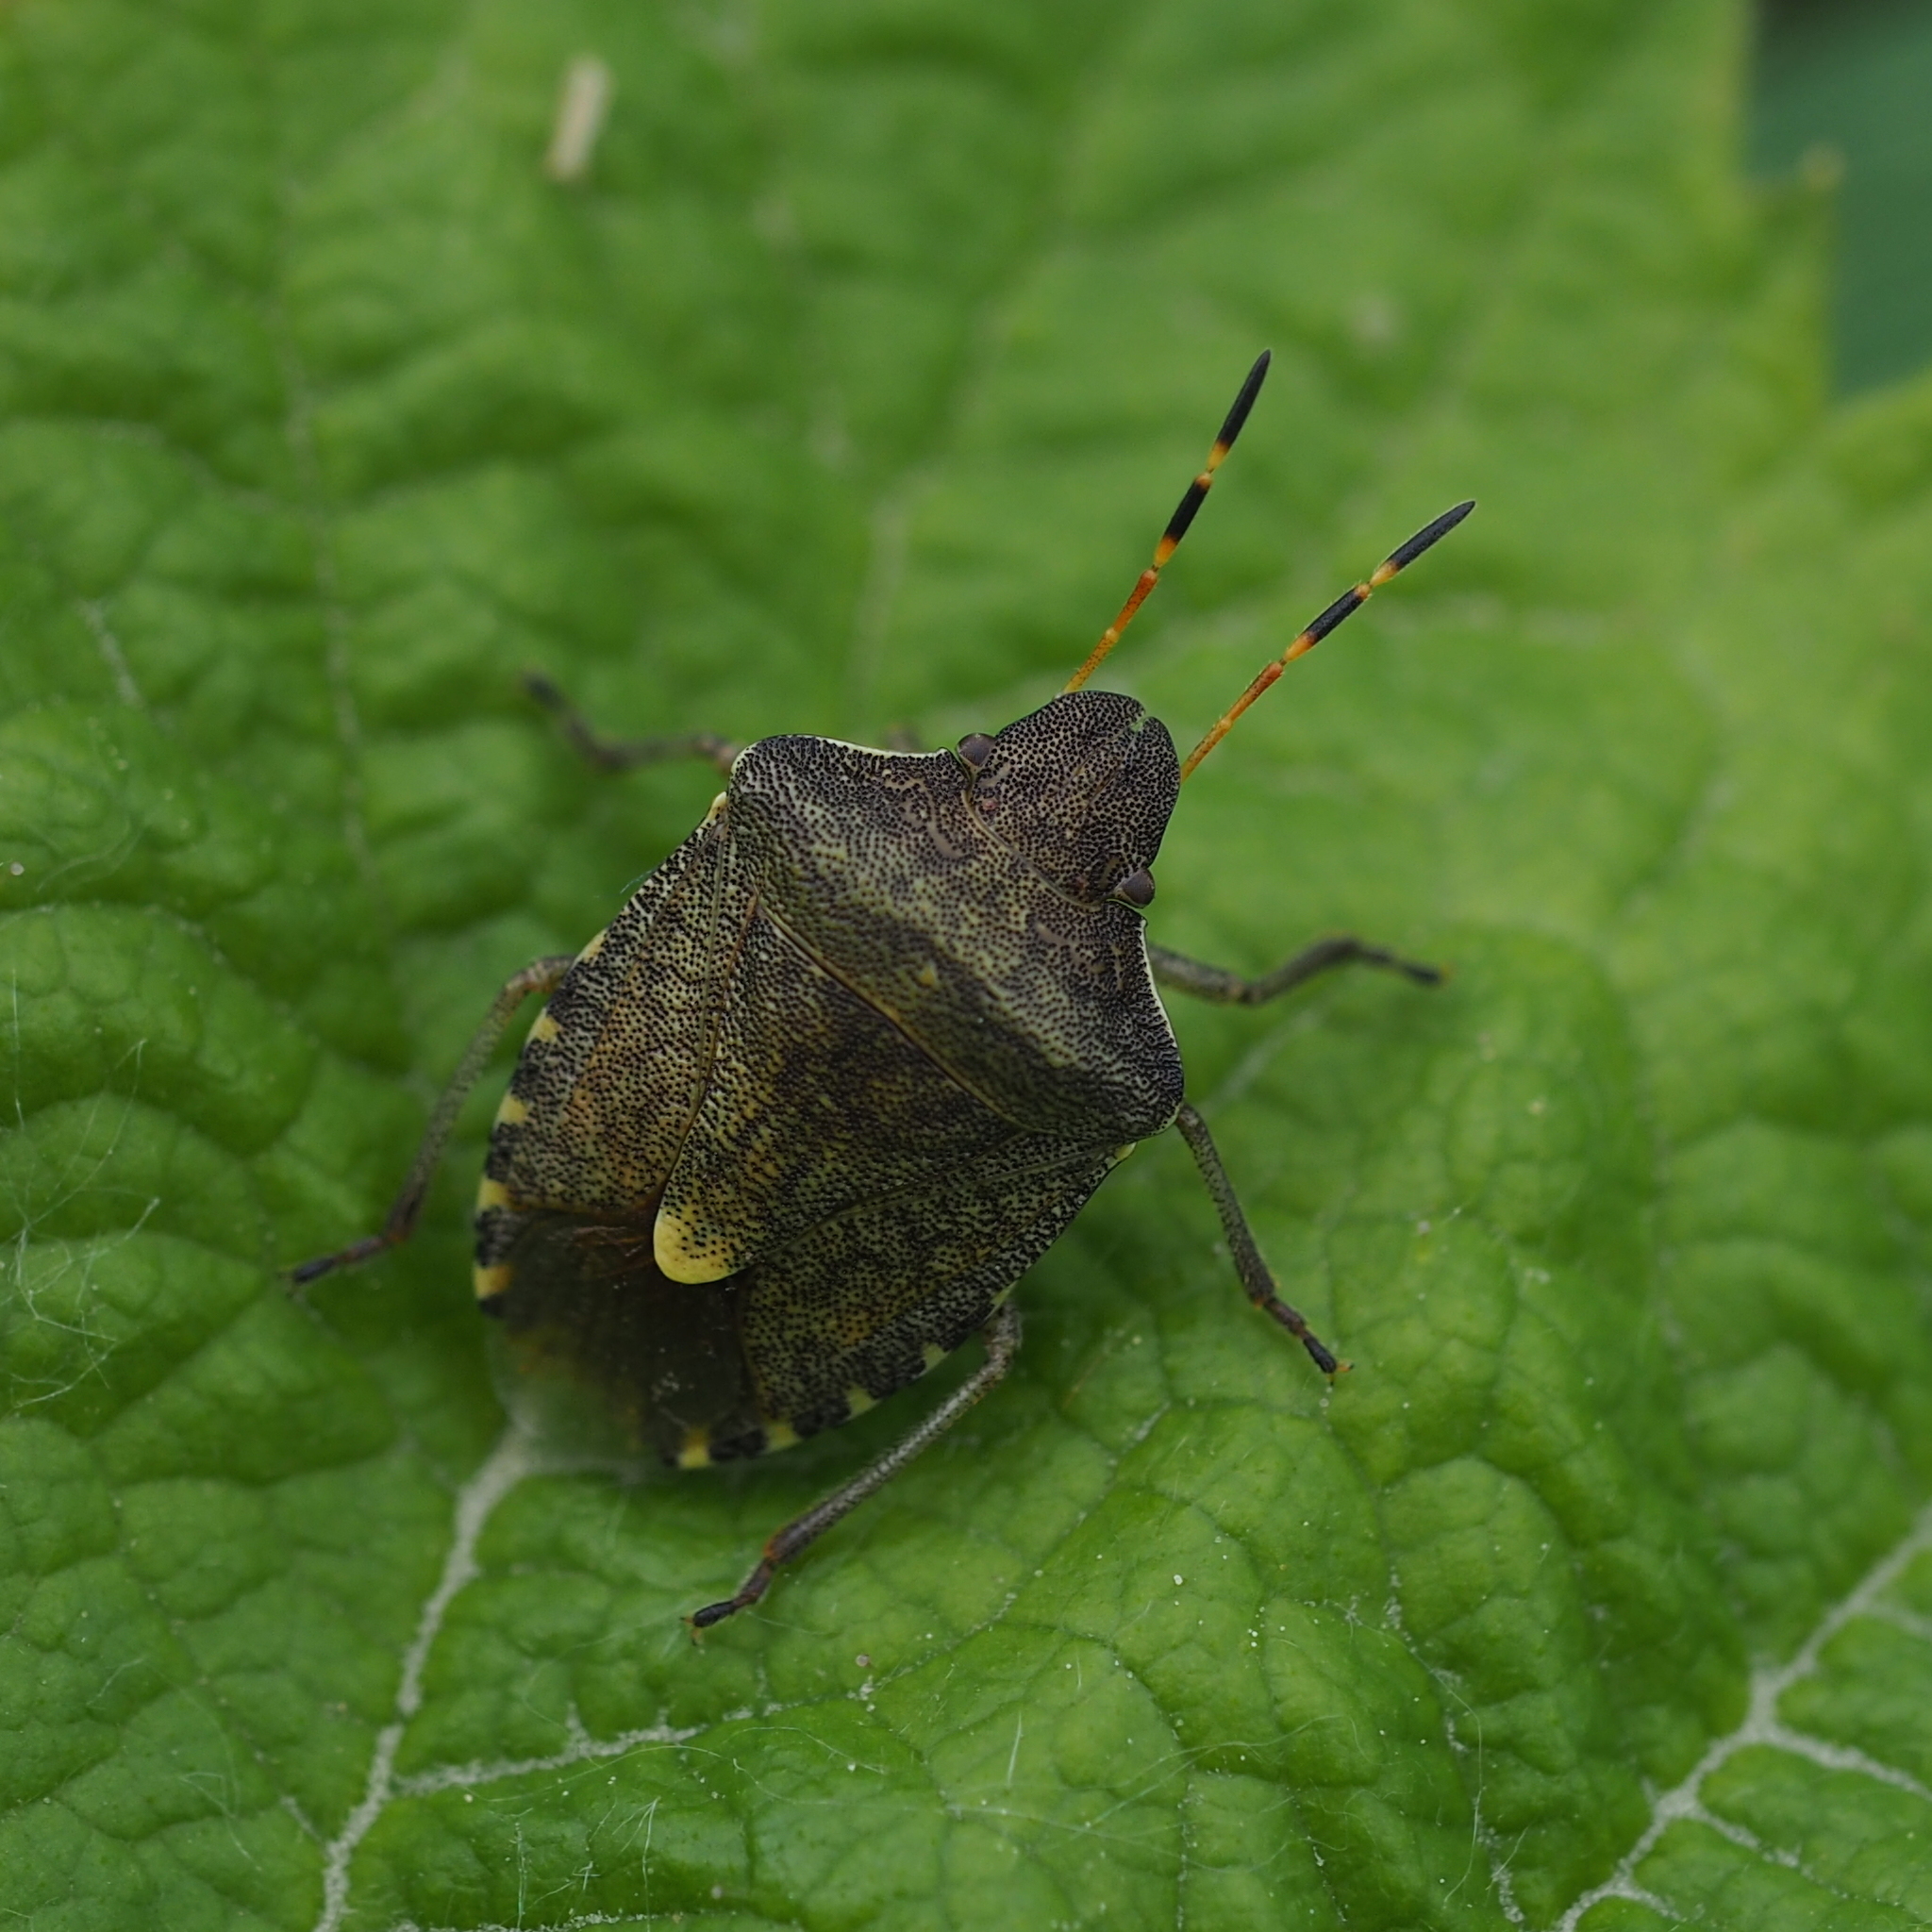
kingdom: Animalia
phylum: Arthropoda
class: Insecta
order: Hemiptera
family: Pentatomidae
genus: Holcostethus
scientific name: Holcostethus strictus
